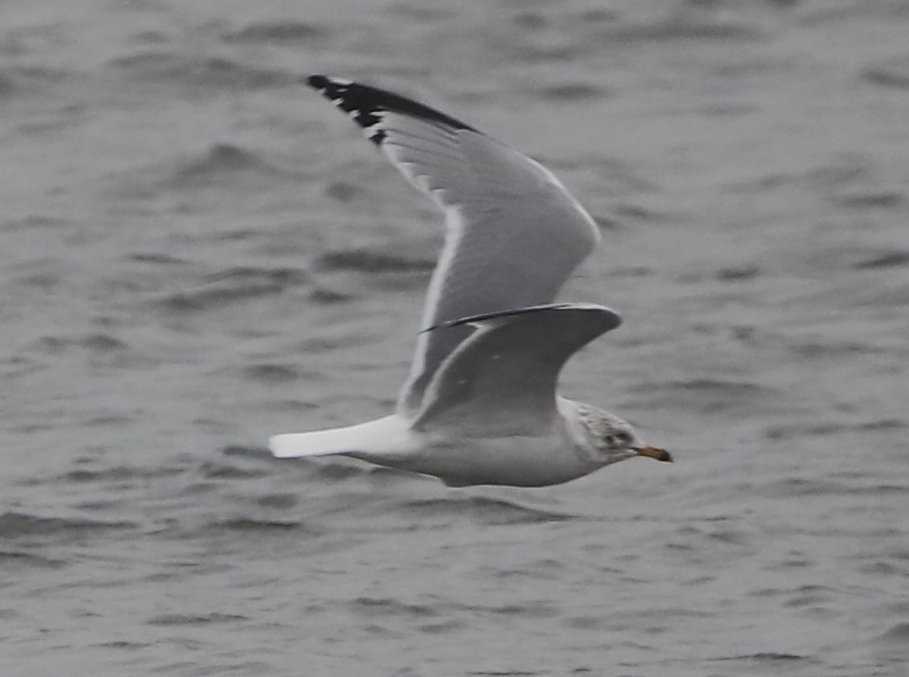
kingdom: Animalia
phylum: Chordata
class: Aves
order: Charadriiformes
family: Laridae
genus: Larus
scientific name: Larus delawarensis
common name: Ring-billed gull
